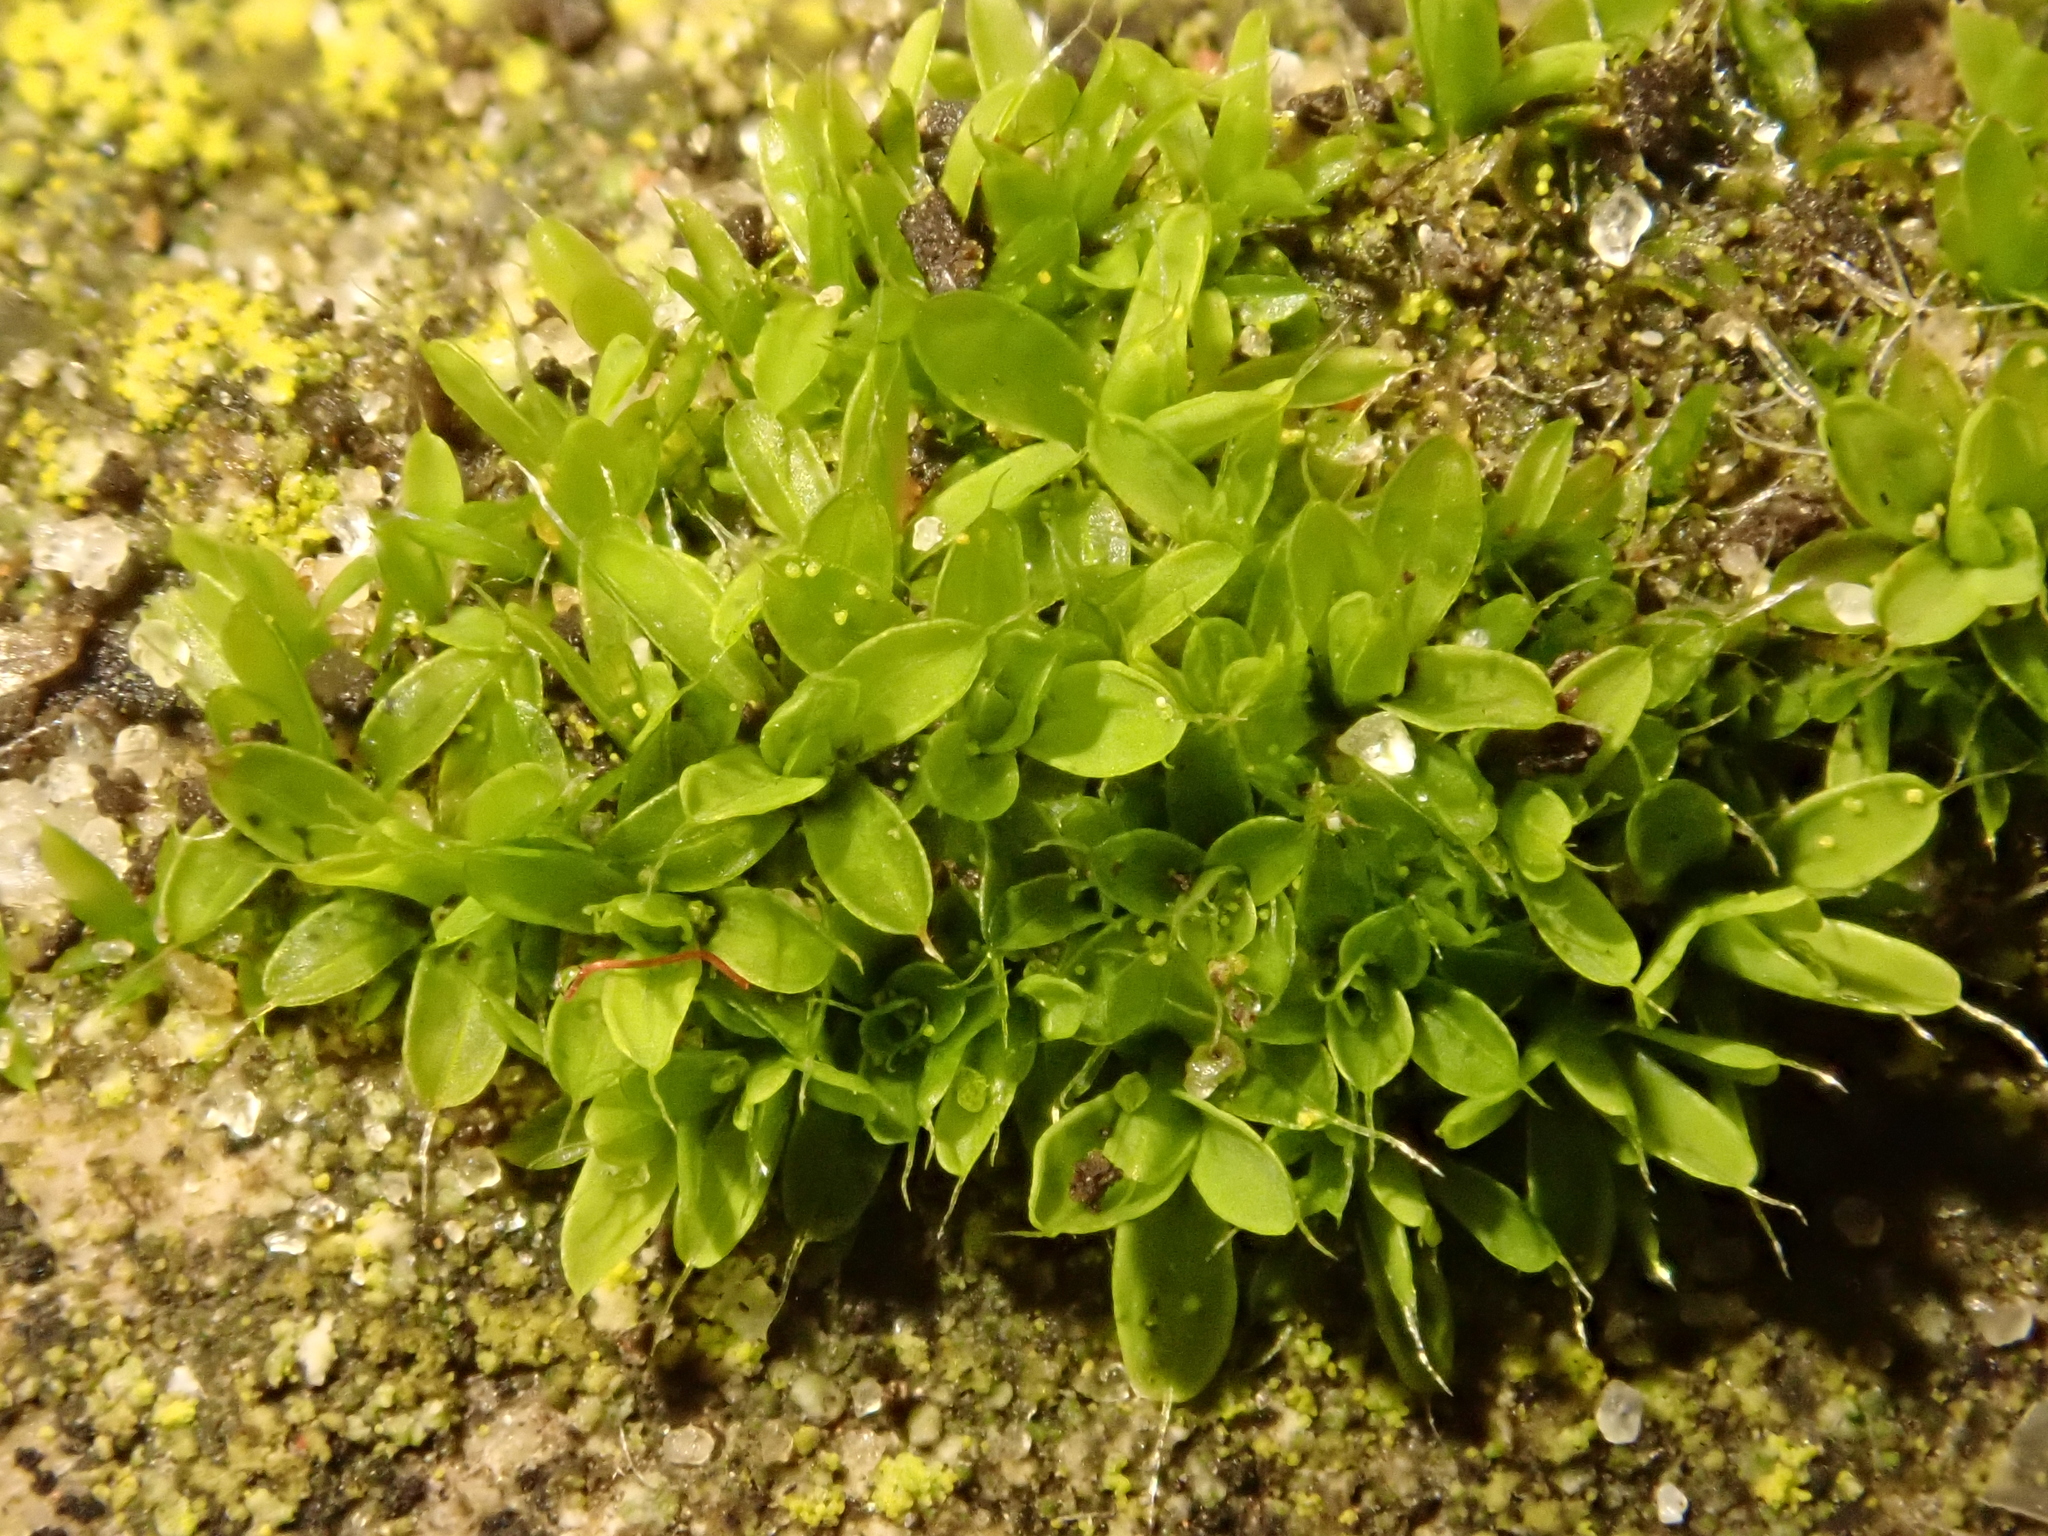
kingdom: Plantae
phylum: Bryophyta
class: Bryopsida
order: Pottiales
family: Pottiaceae
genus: Tortula
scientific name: Tortula muralis
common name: Wall screw-moss
